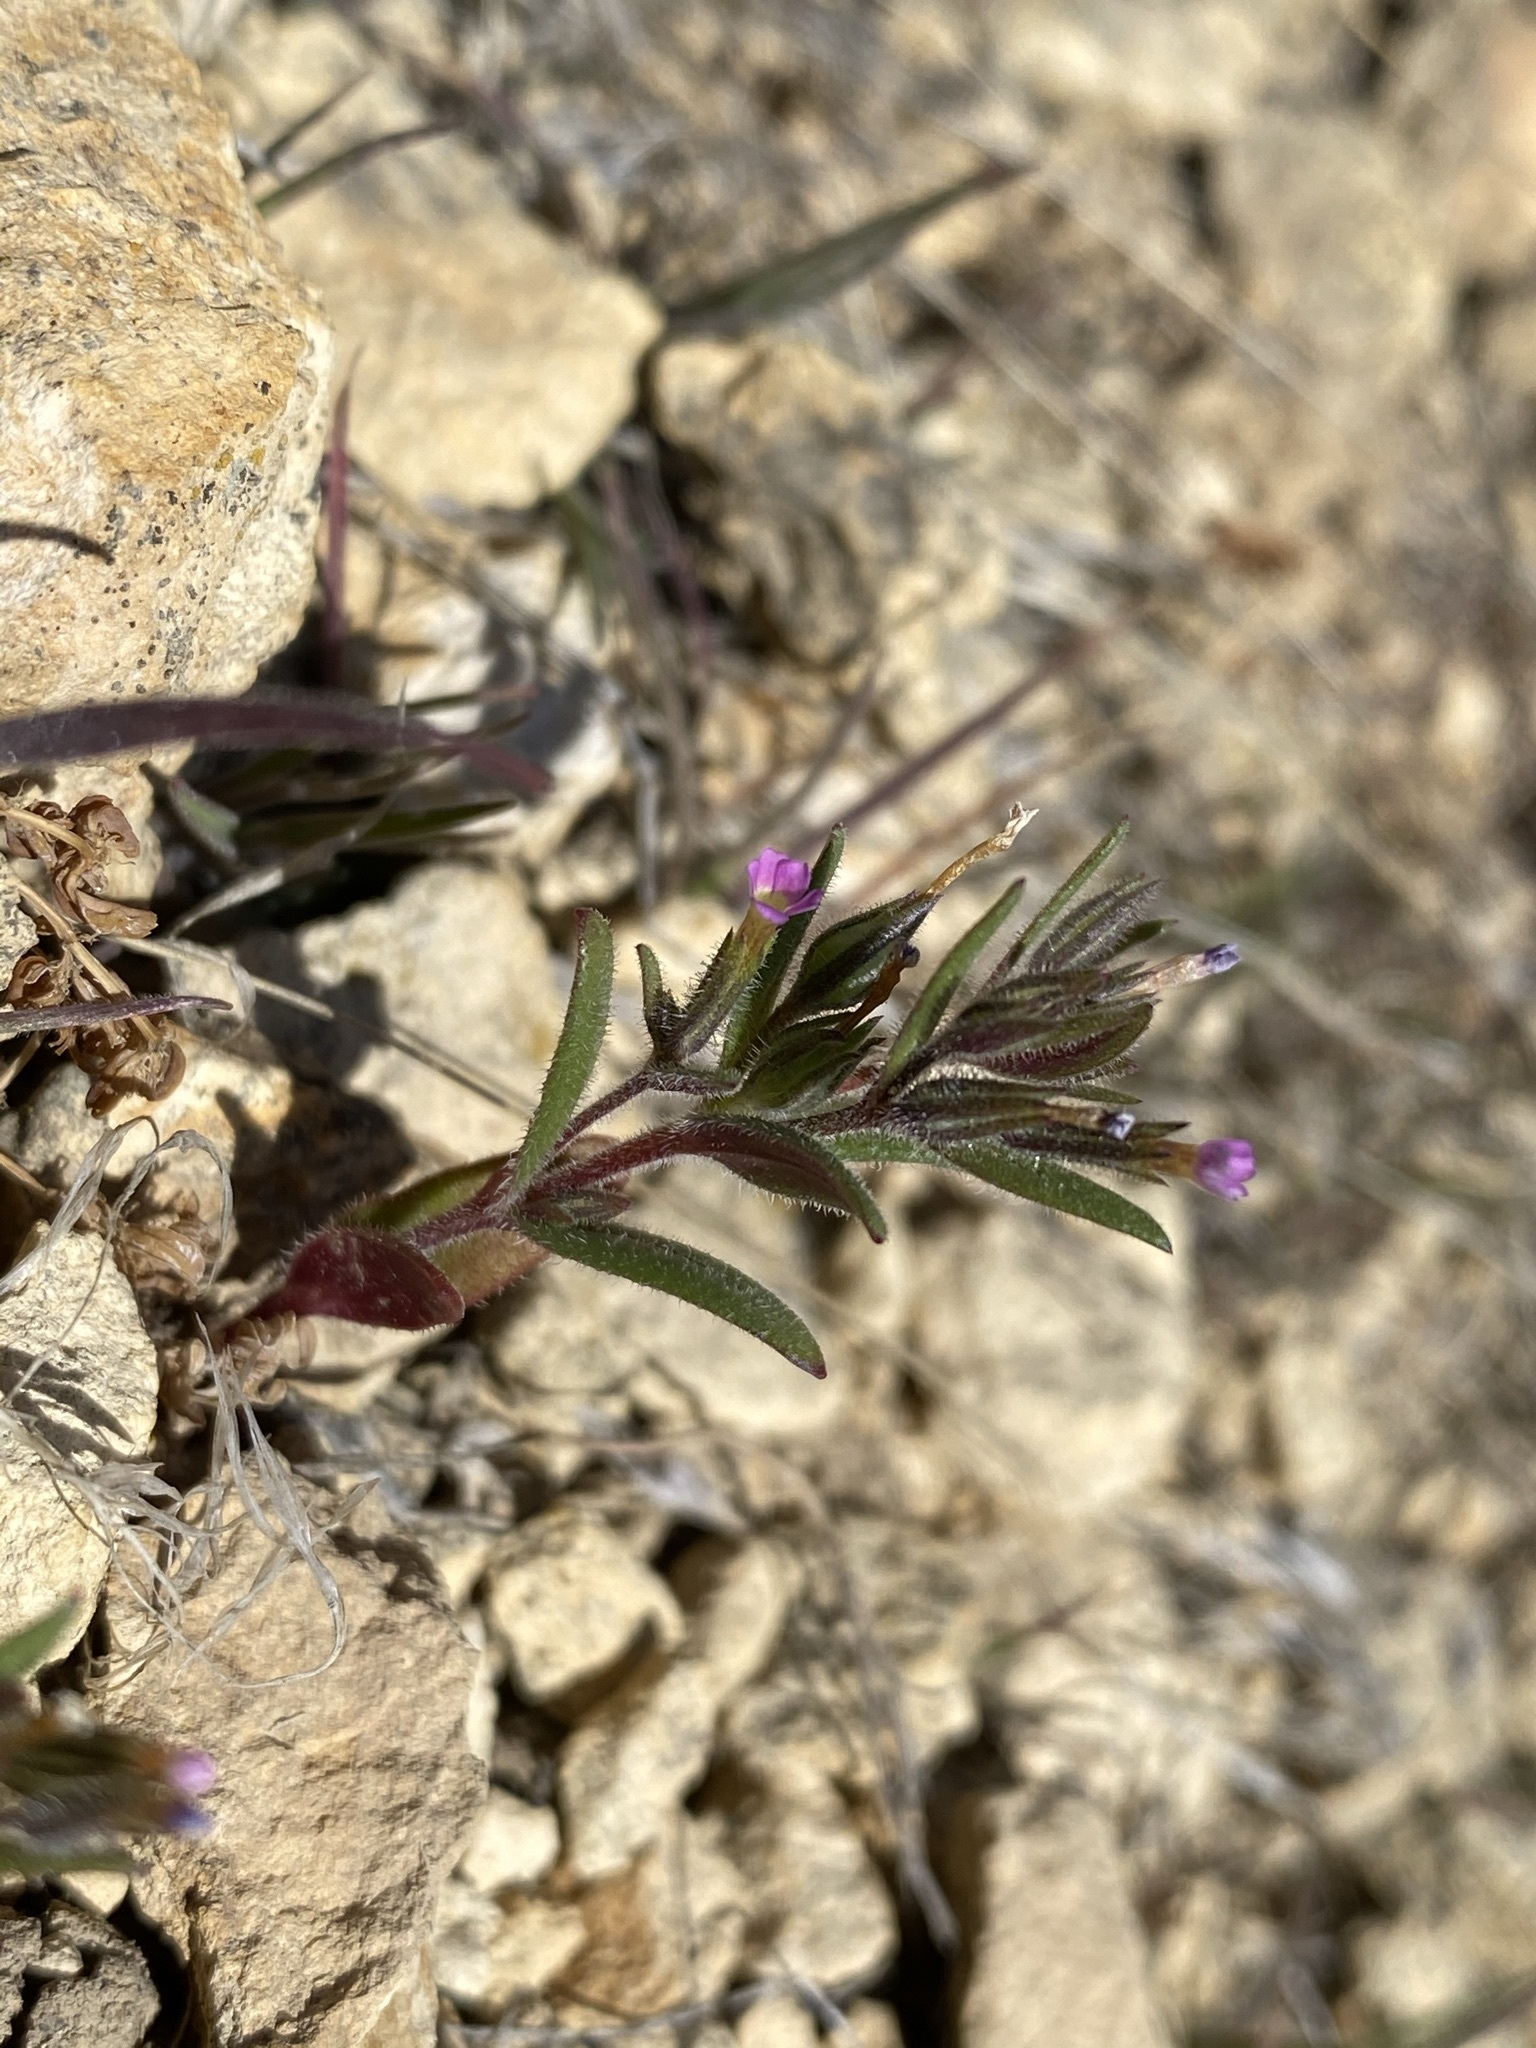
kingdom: Plantae
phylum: Tracheophyta
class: Magnoliopsida
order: Ericales
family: Polemoniaceae
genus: Phlox
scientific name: Phlox gracilis
